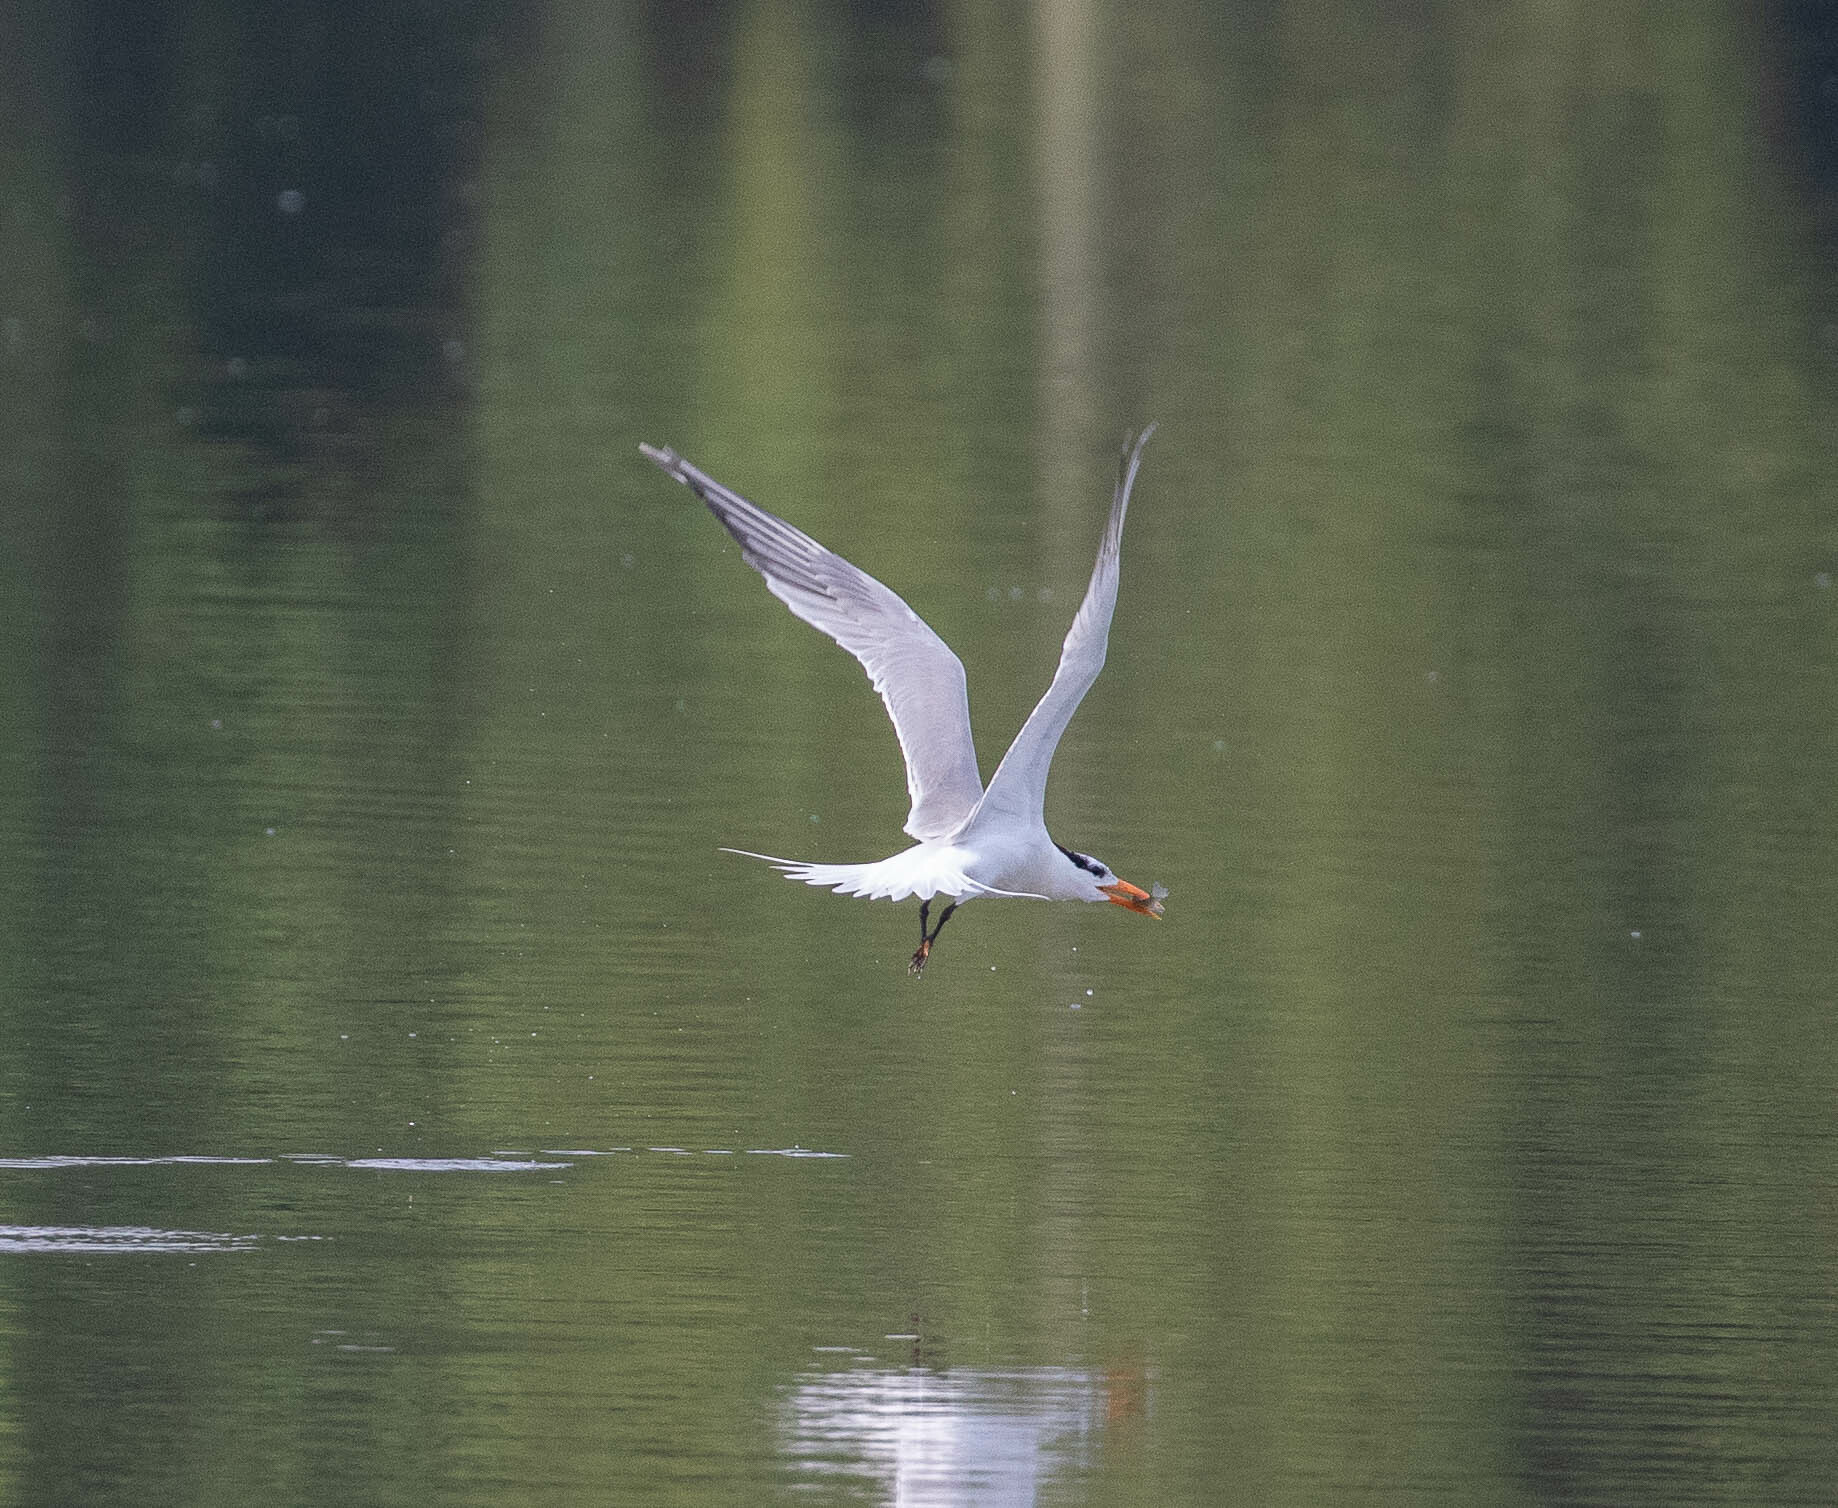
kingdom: Animalia
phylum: Chordata
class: Aves
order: Charadriiformes
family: Laridae
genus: Thalasseus
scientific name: Thalasseus maximus
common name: Royal tern
